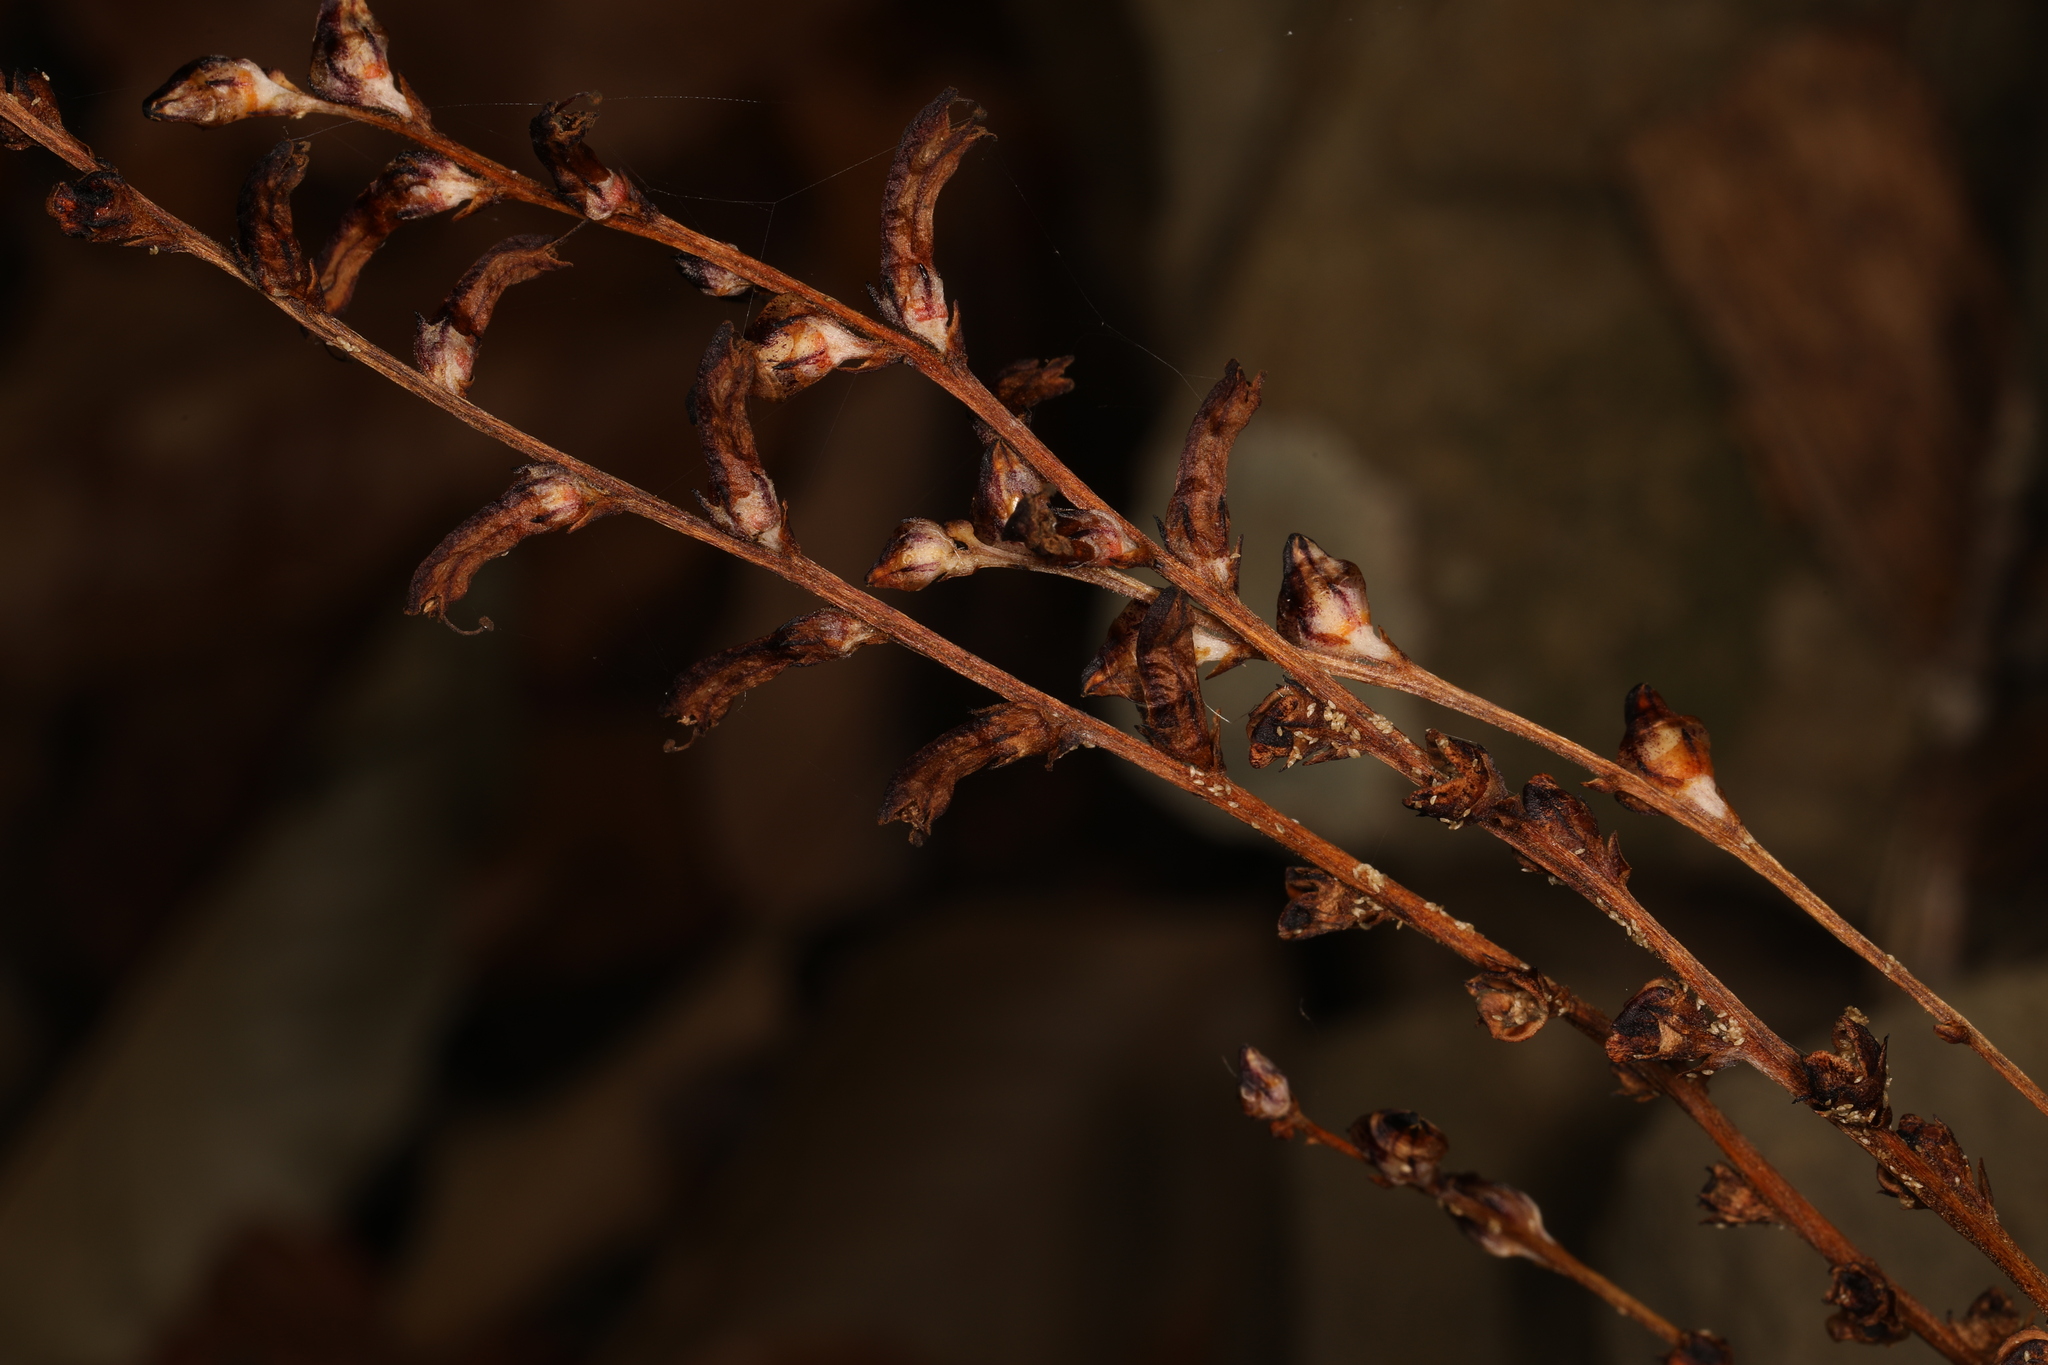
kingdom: Plantae
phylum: Tracheophyta
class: Magnoliopsida
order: Lamiales
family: Orobanchaceae
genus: Epifagus
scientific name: Epifagus virginiana
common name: Beechdrops
